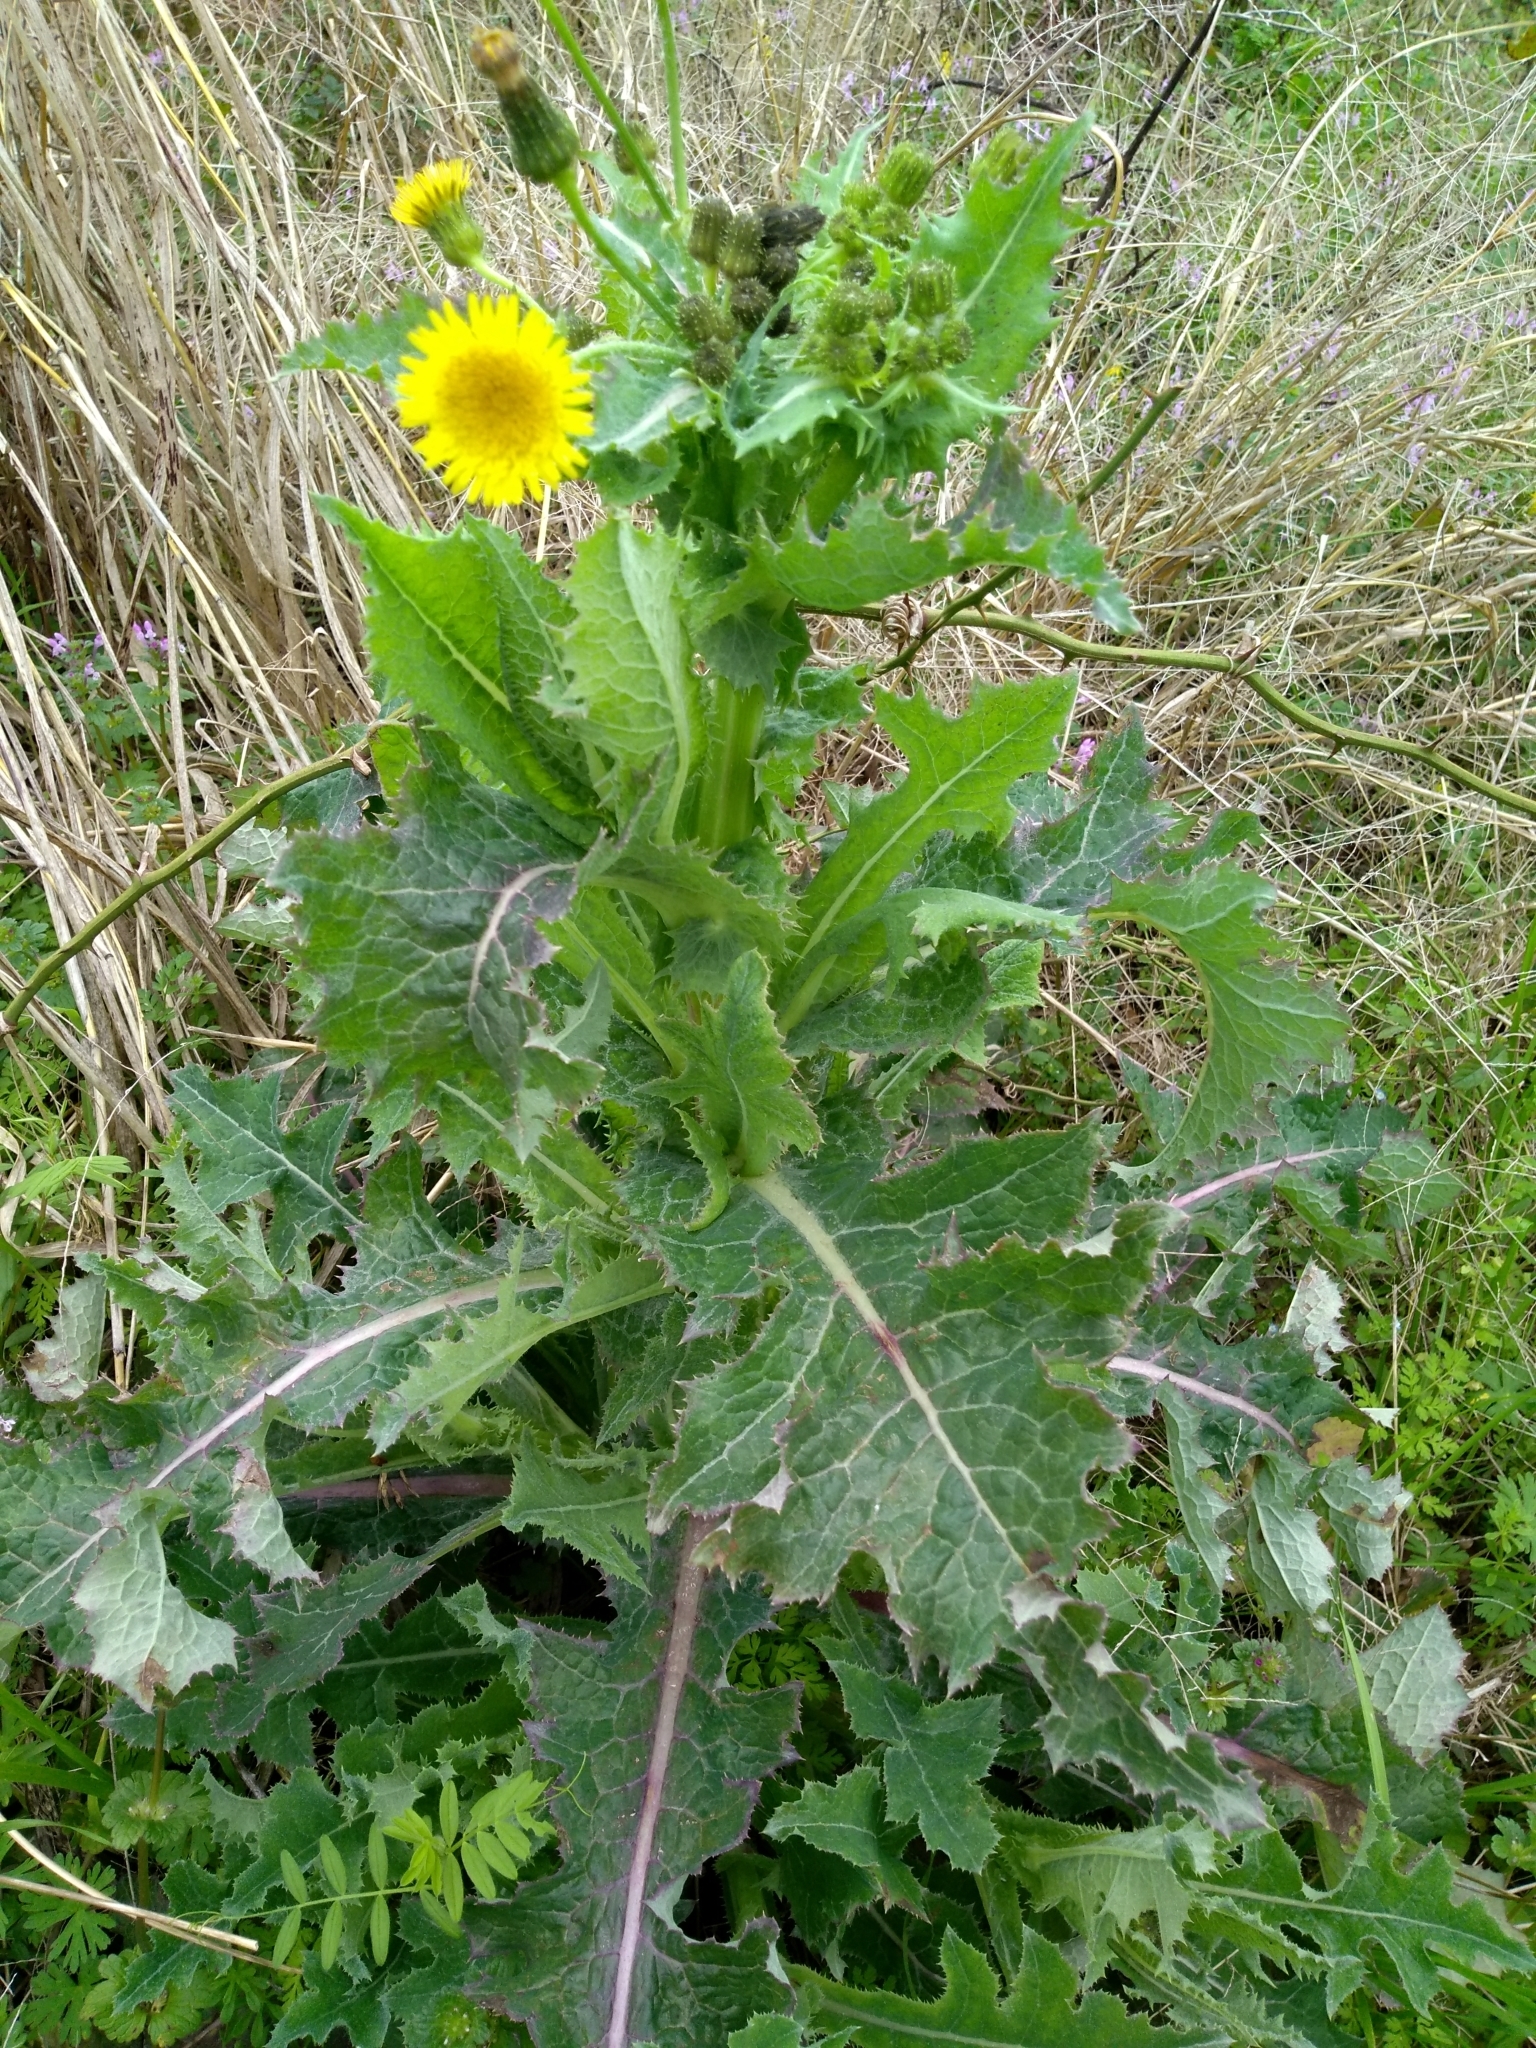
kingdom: Plantae
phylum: Tracheophyta
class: Magnoliopsida
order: Asterales
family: Asteraceae
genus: Sonchus
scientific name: Sonchus asper
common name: Prickly sow-thistle
